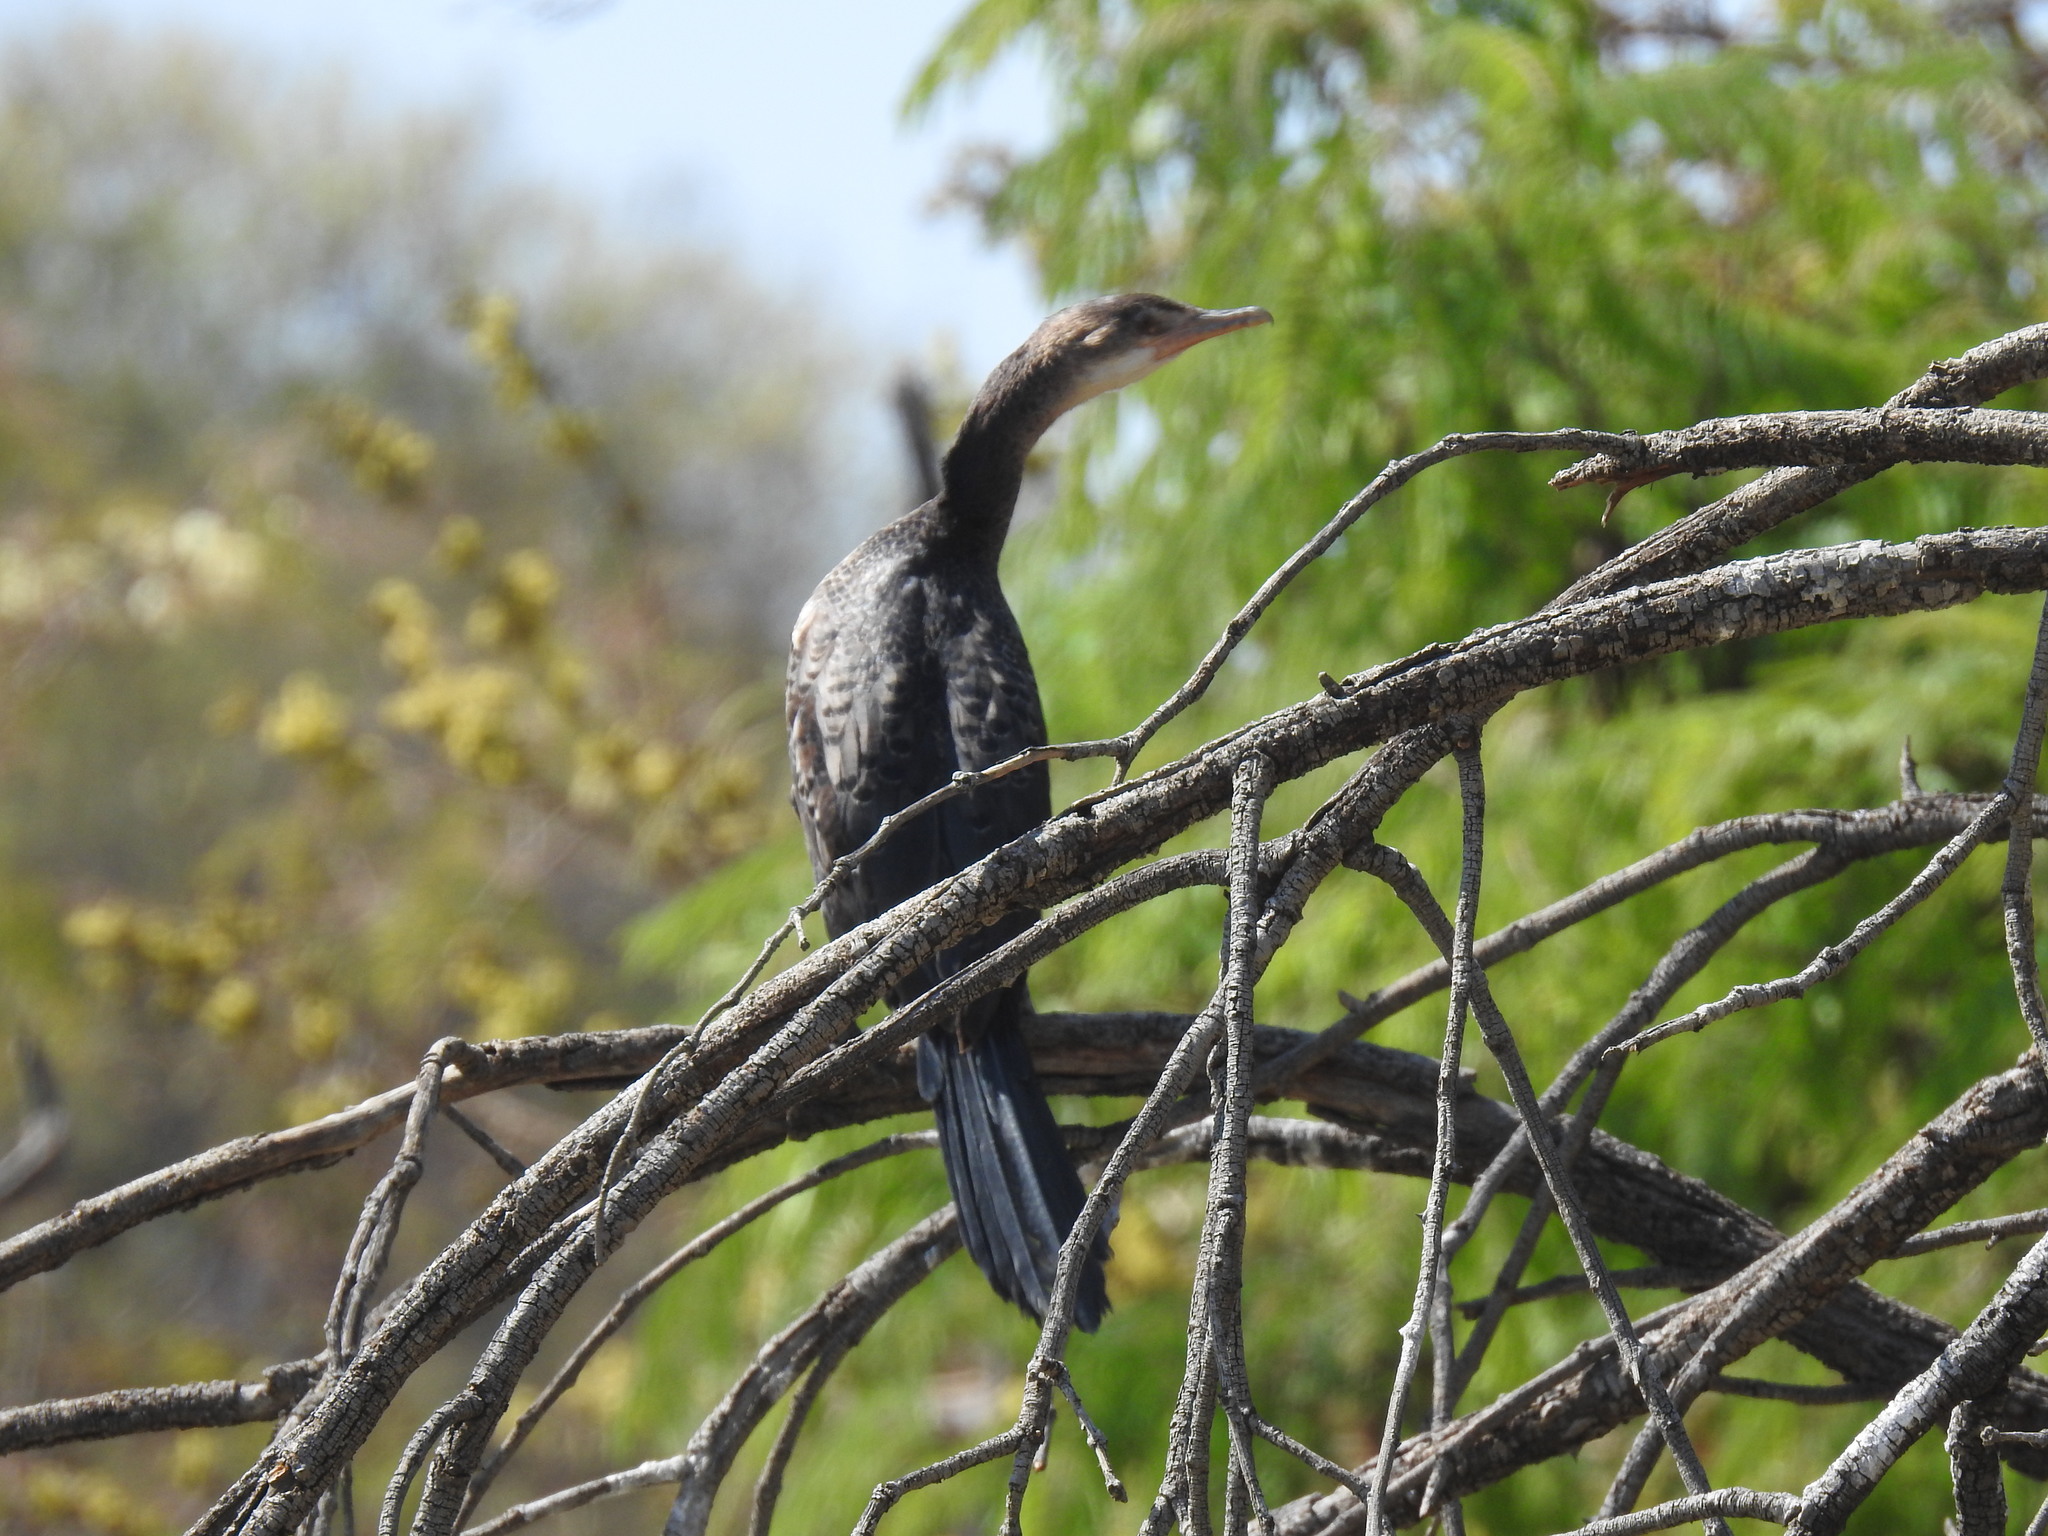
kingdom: Animalia
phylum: Chordata
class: Aves
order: Suliformes
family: Phalacrocoracidae
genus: Microcarbo
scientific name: Microcarbo africanus
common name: Long-tailed cormorant
